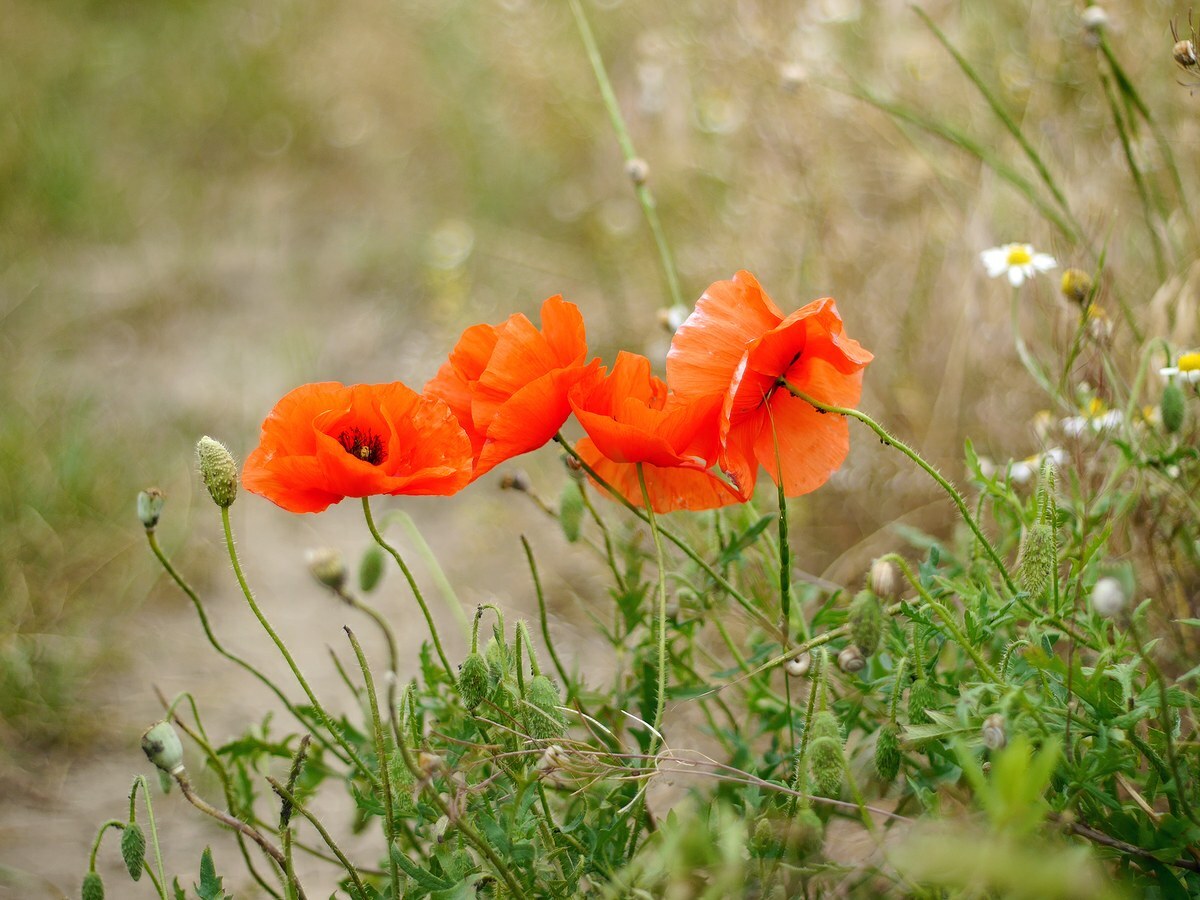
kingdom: Plantae
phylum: Tracheophyta
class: Magnoliopsida
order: Ranunculales
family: Papaveraceae
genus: Papaver
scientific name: Papaver rhoeas
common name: Corn poppy
